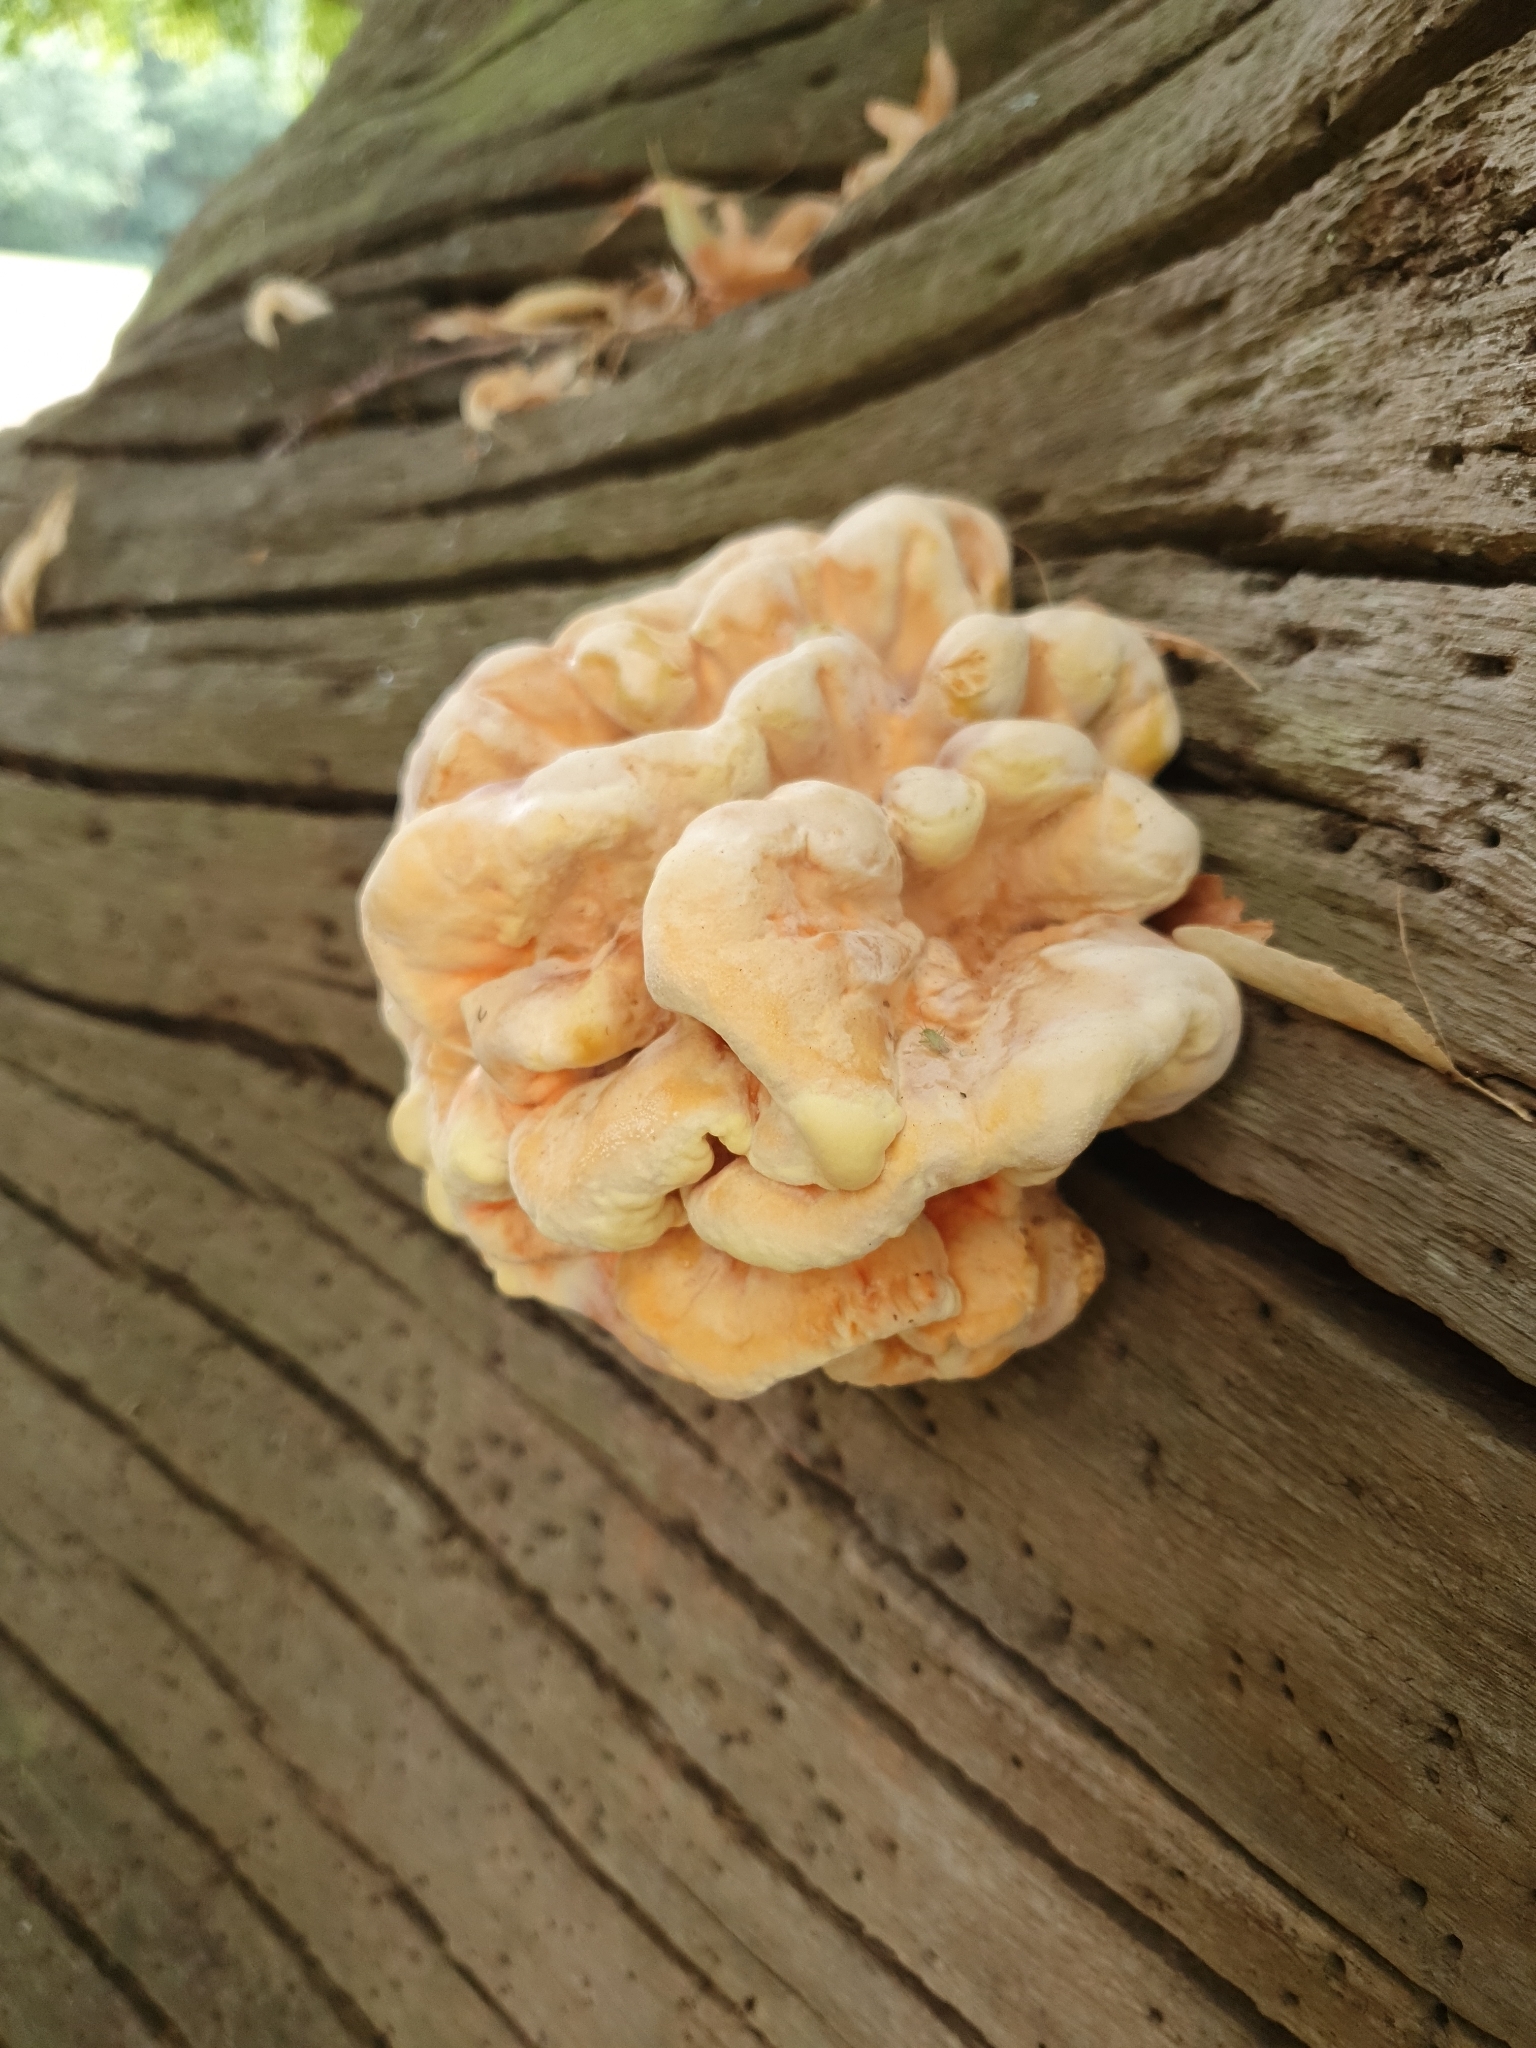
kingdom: Fungi
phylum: Basidiomycota
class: Agaricomycetes
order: Polyporales
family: Laetiporaceae
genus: Laetiporus
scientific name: Laetiporus sulphureus
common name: Chicken of the woods
